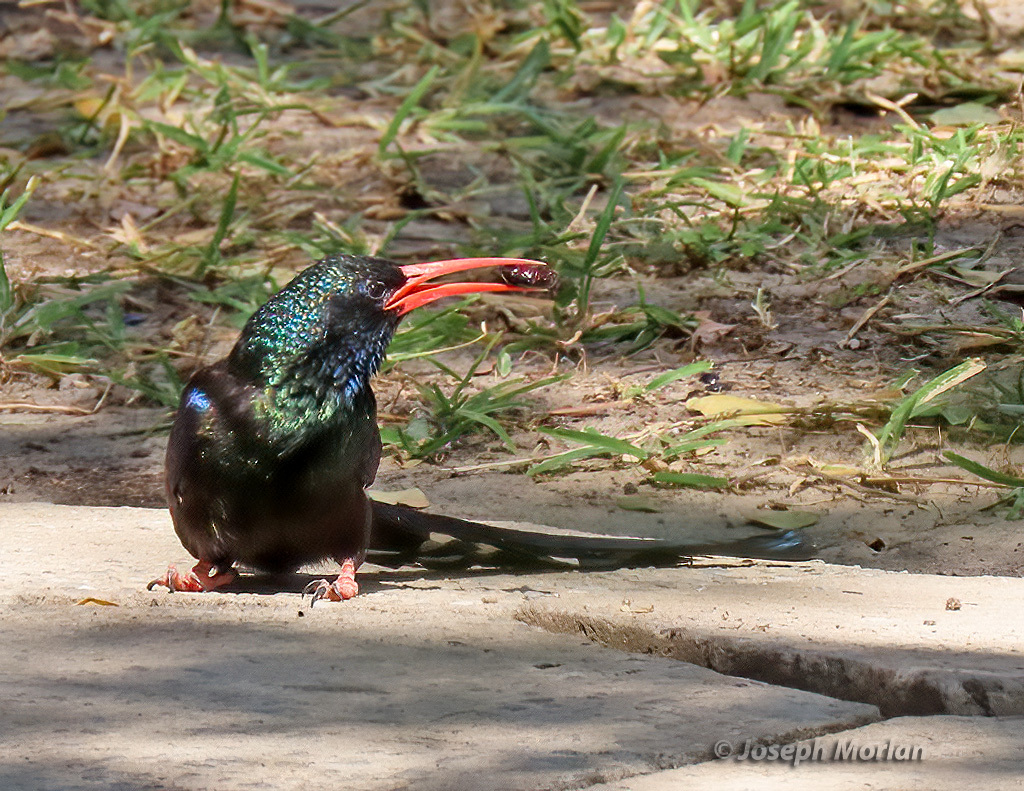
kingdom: Animalia
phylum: Chordata
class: Aves
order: Bucerotiformes
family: Phoeniculidae
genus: Phoeniculus
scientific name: Phoeniculus purpureus
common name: Green woodhoopoe
